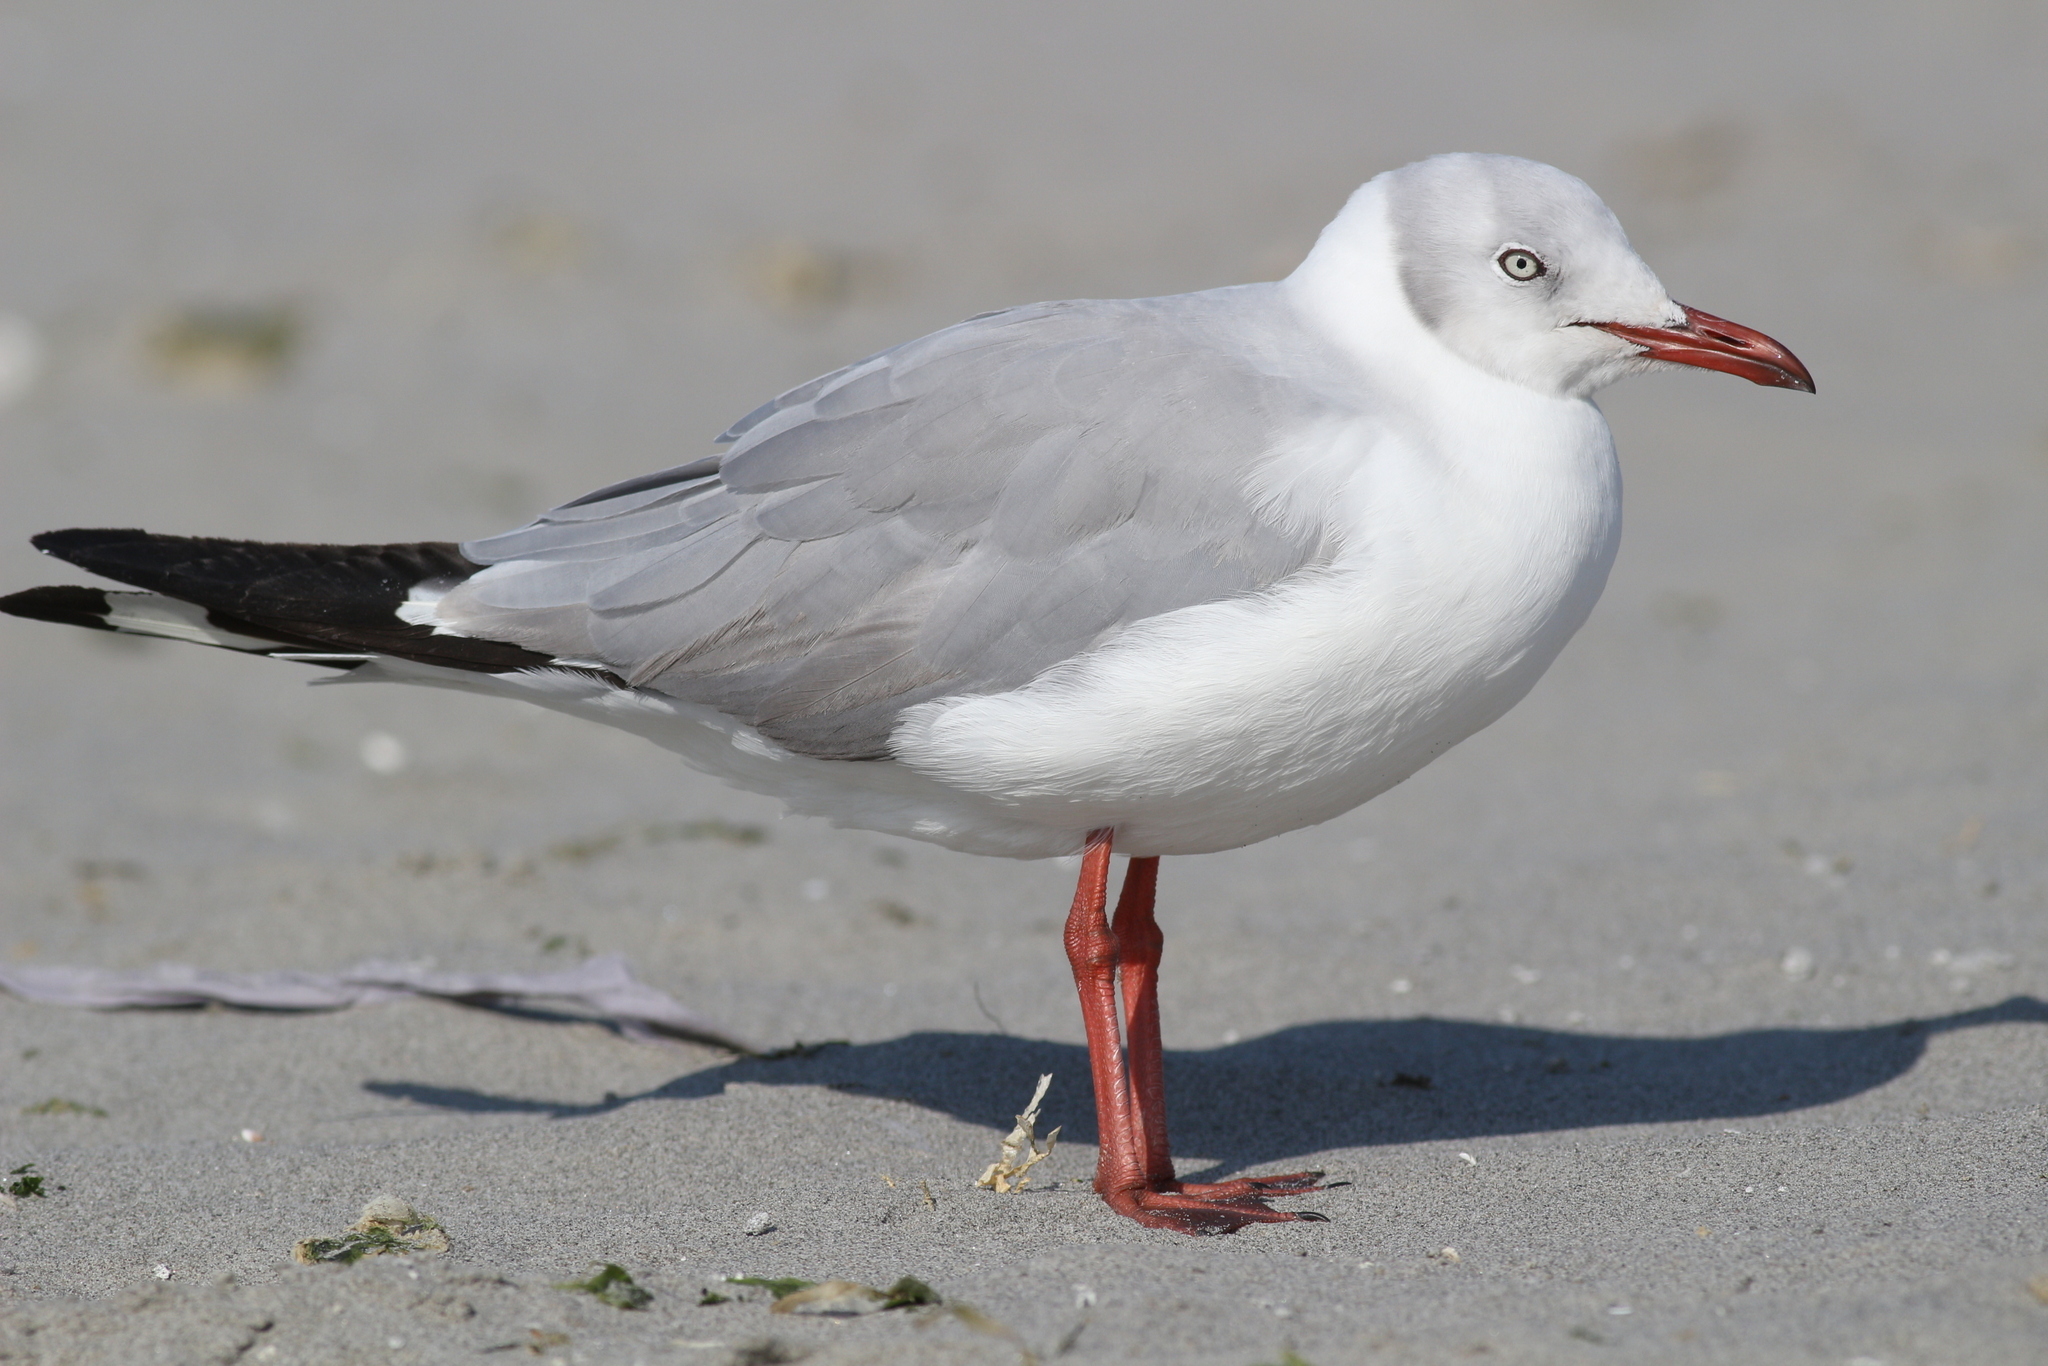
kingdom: Animalia
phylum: Chordata
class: Aves
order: Charadriiformes
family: Laridae
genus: Chroicocephalus
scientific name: Chroicocephalus cirrocephalus
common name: Grey-headed gull
